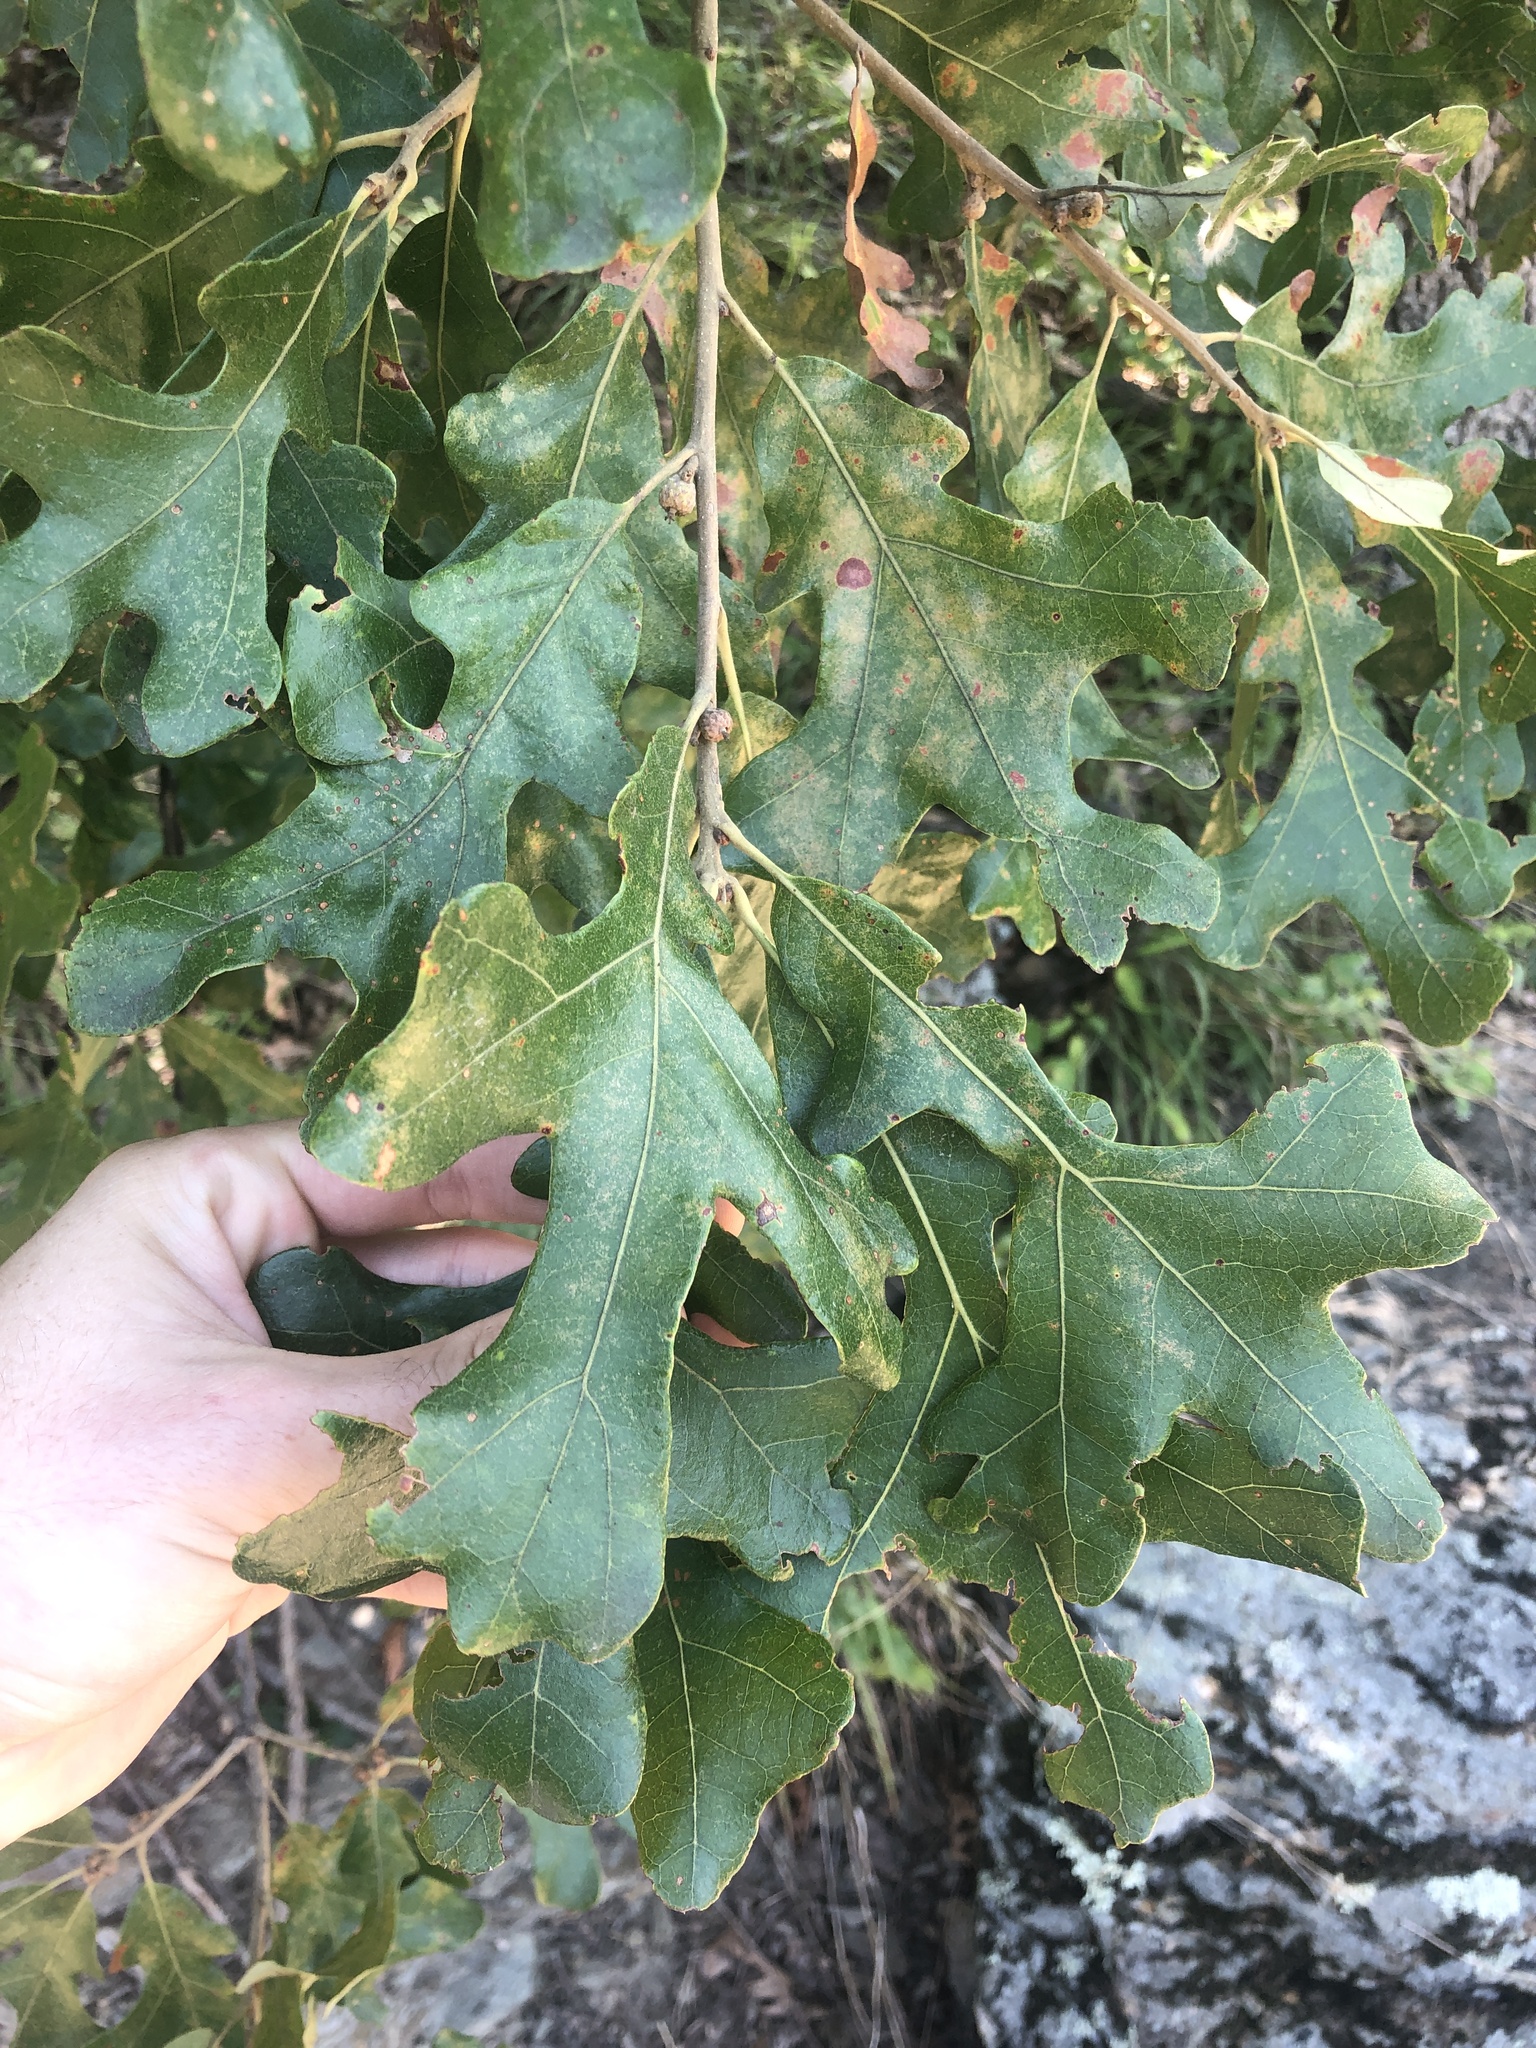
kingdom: Plantae
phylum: Tracheophyta
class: Magnoliopsida
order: Fagales
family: Fagaceae
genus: Quercus
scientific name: Quercus stellata
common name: Post oak
